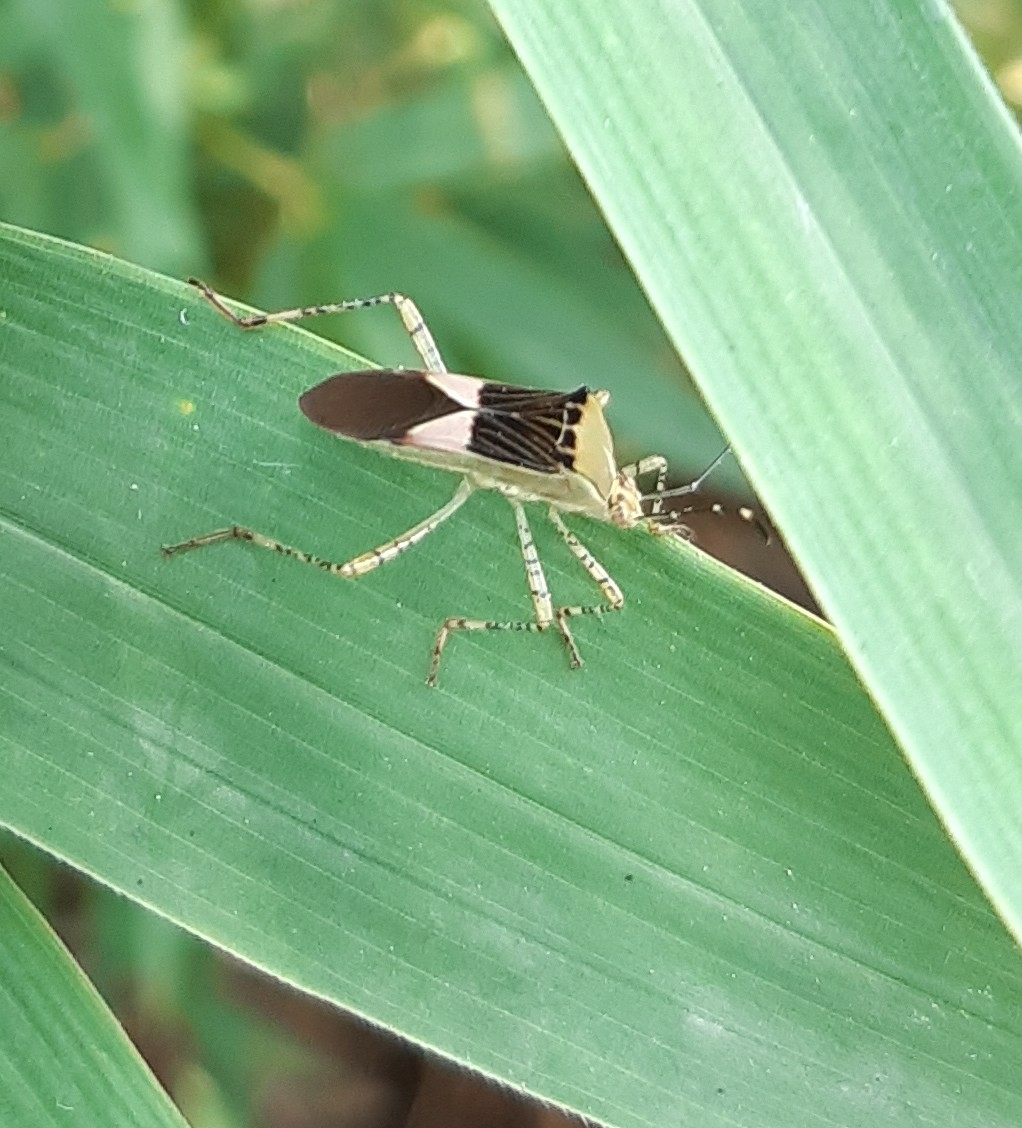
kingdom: Animalia
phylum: Arthropoda
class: Insecta
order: Hemiptera
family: Coreidae
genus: Hypselonotus
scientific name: Hypselonotus fulvus
